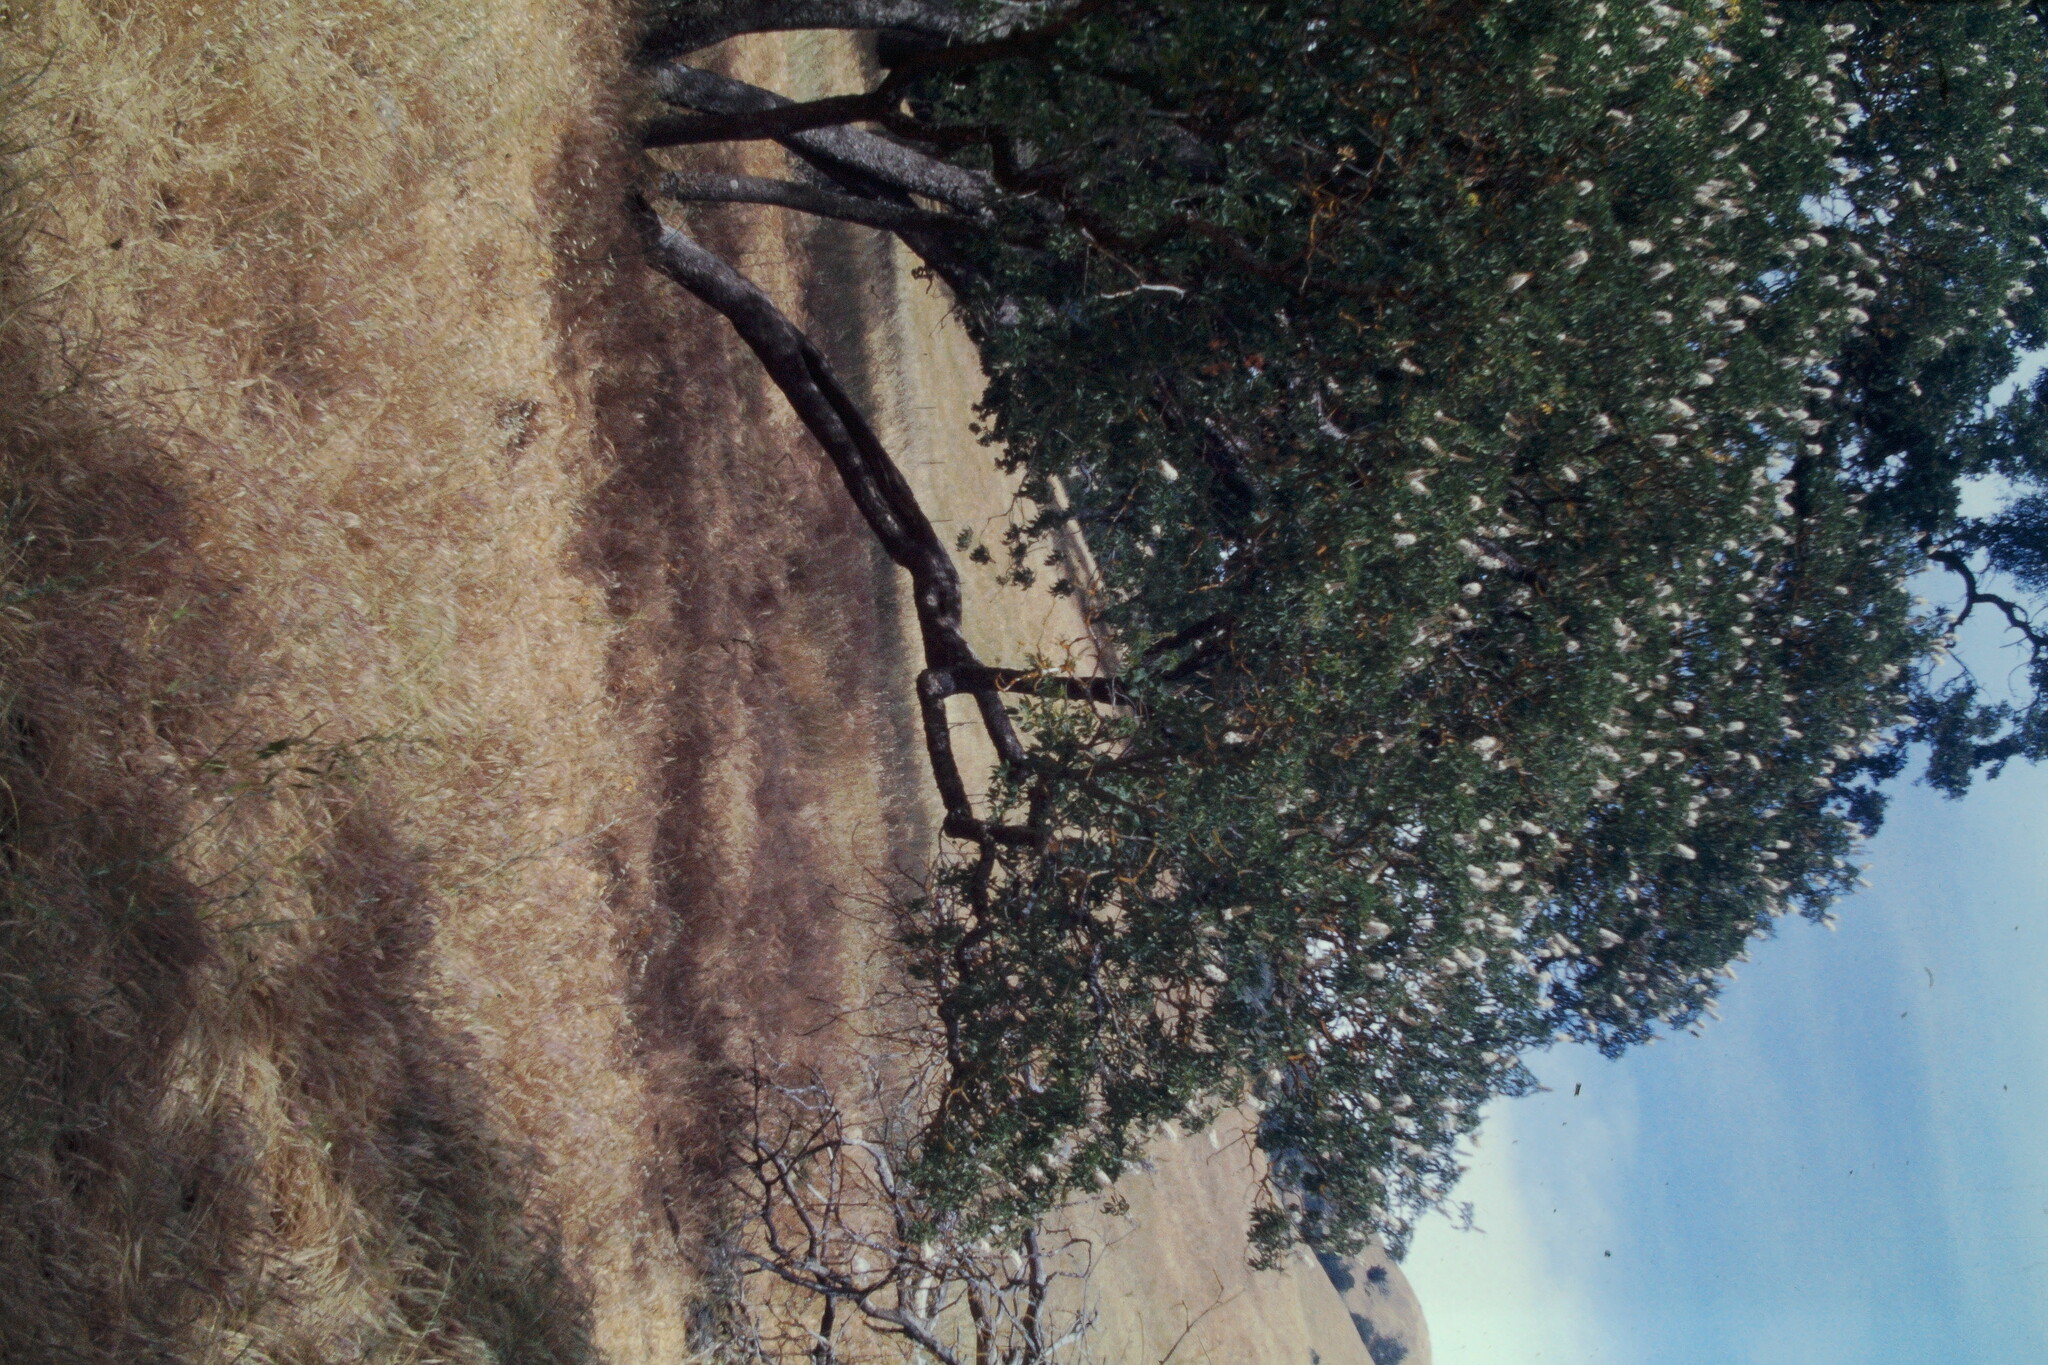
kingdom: Plantae
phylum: Tracheophyta
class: Magnoliopsida
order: Sapindales
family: Sapindaceae
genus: Aesculus
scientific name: Aesculus californica
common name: California buckeye
